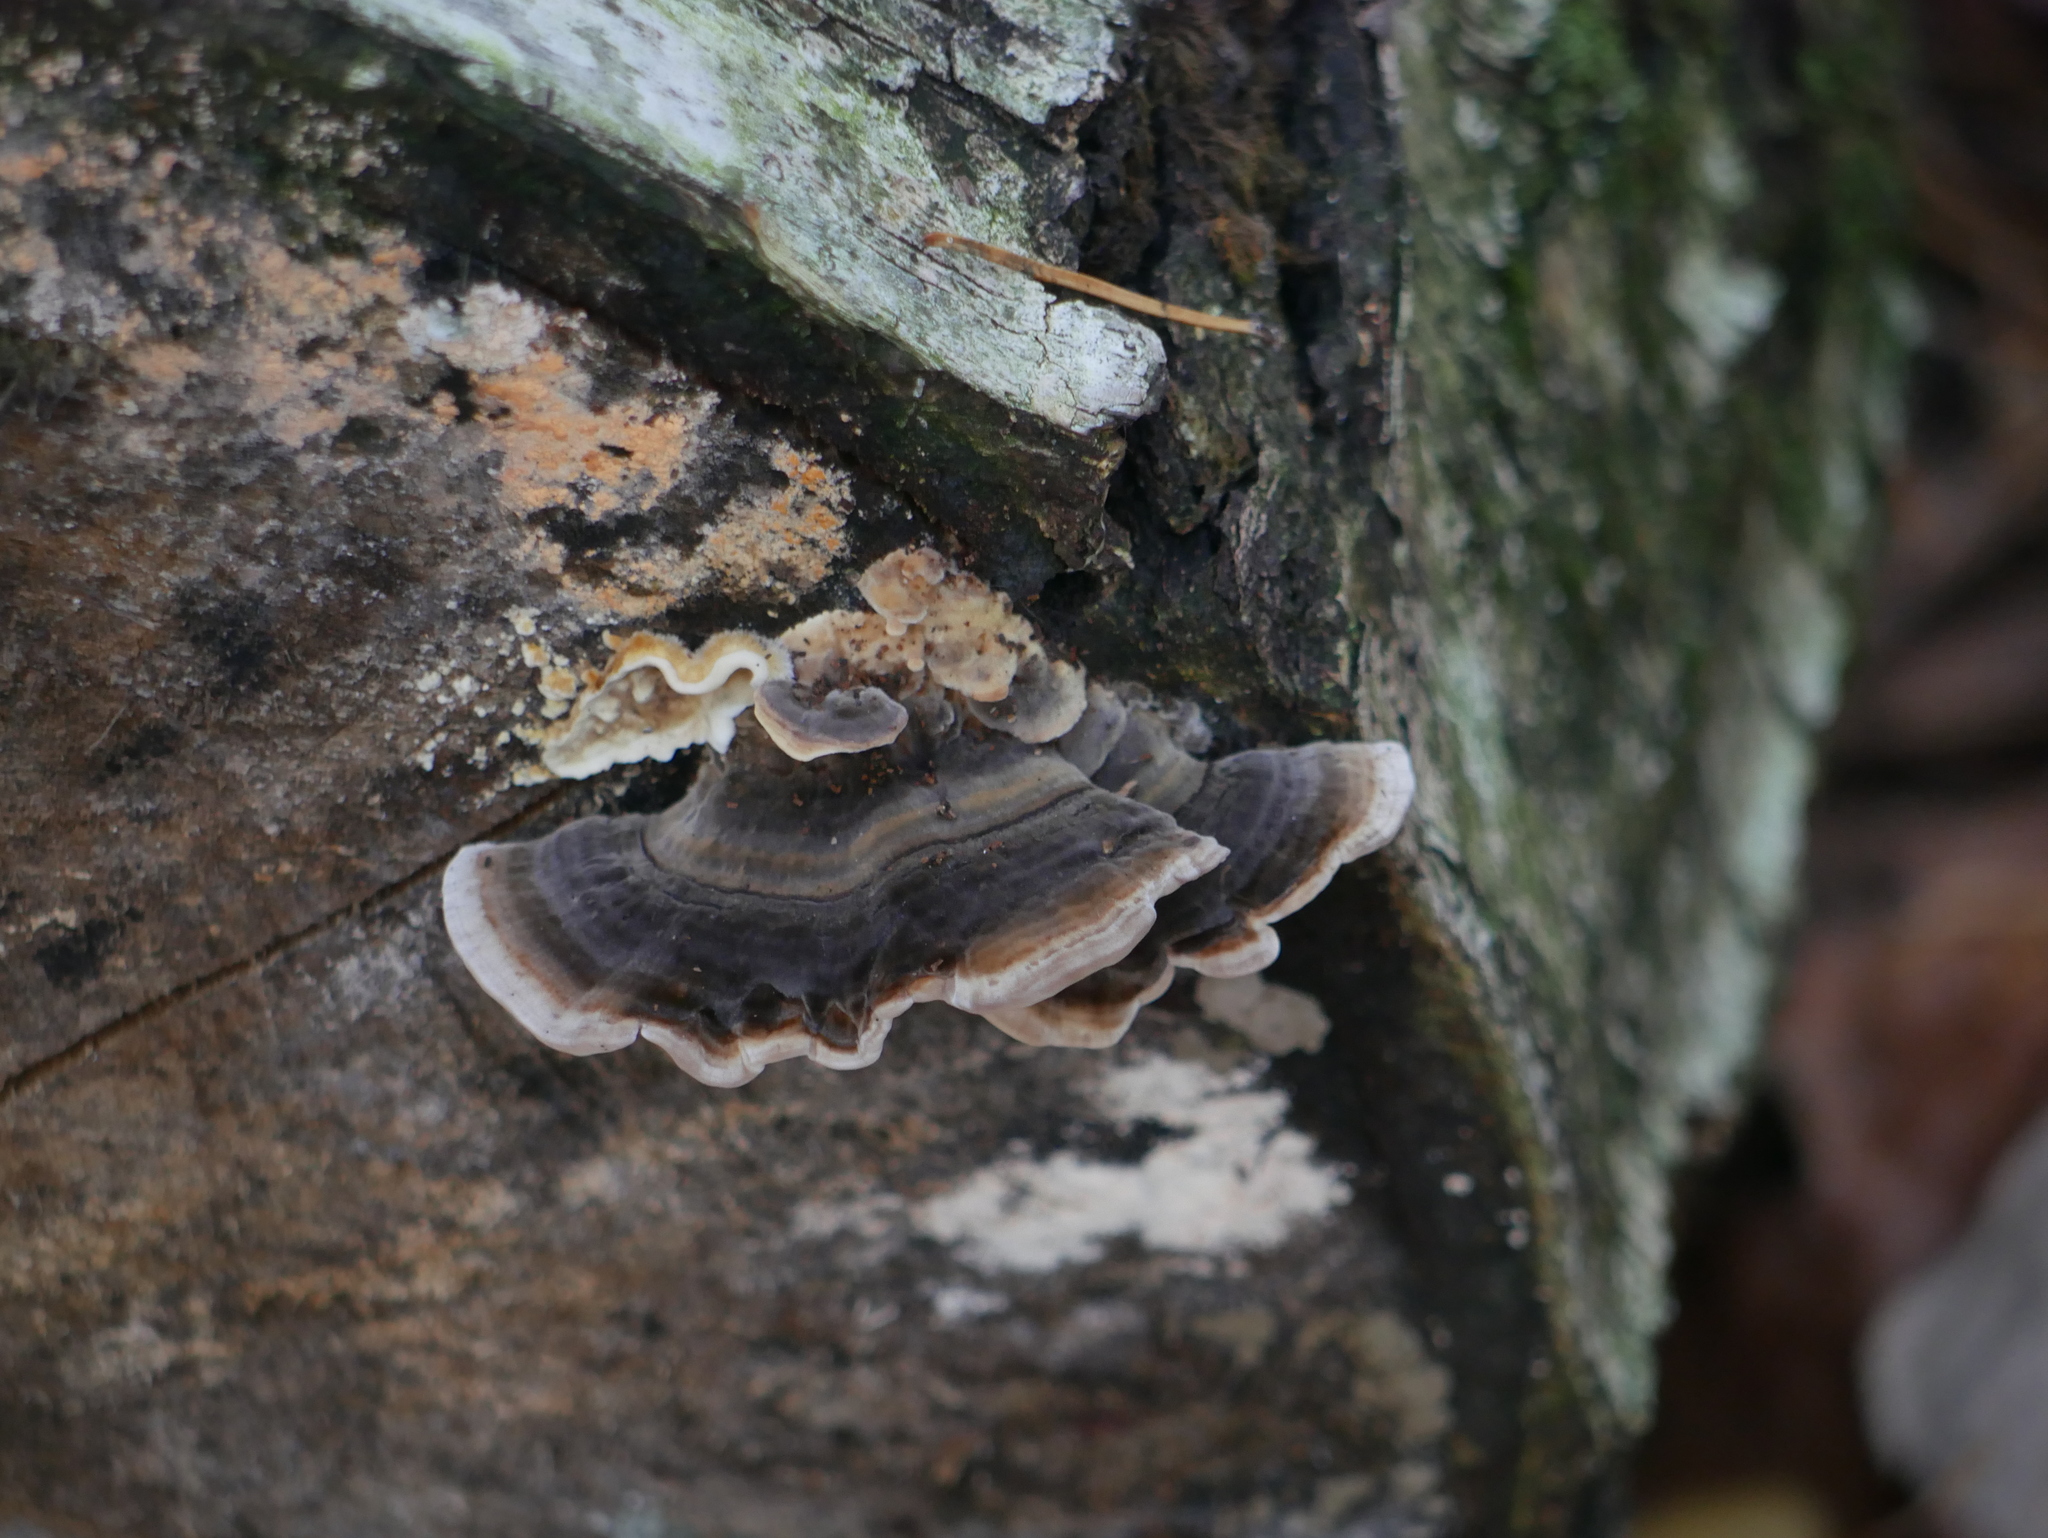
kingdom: Fungi
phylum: Basidiomycota
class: Agaricomycetes
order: Polyporales
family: Polyporaceae
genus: Trametes
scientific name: Trametes versicolor
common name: Turkeytail
